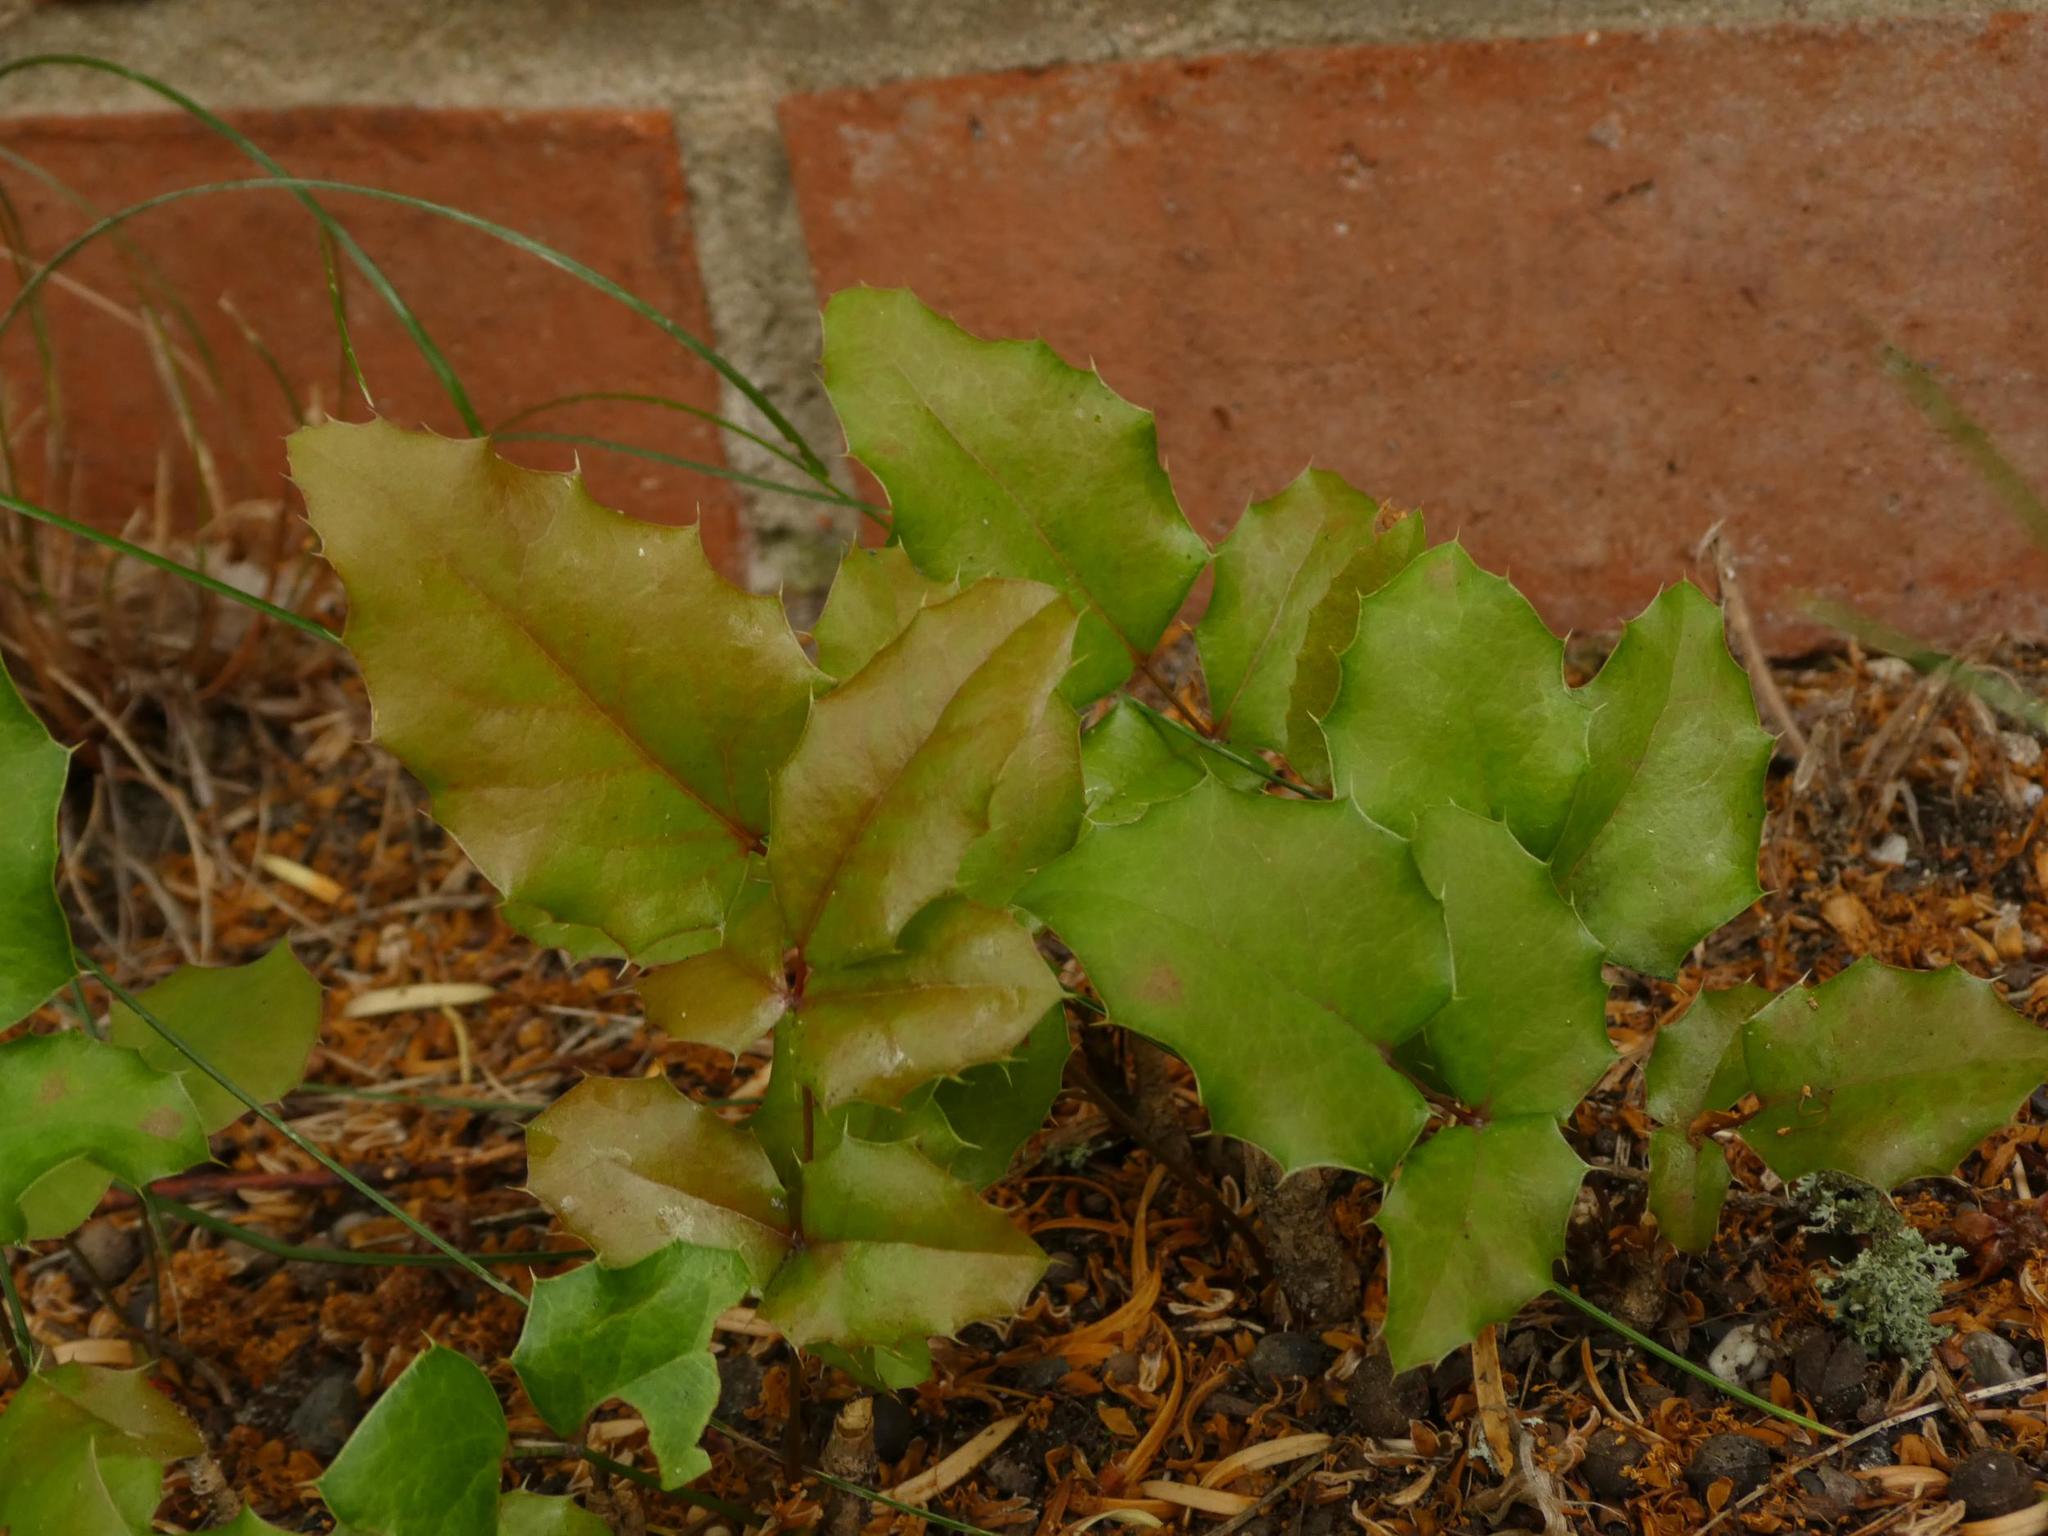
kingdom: Plantae
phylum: Tracheophyta
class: Magnoliopsida
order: Ranunculales
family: Berberidaceae
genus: Mahonia
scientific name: Mahonia aquifolium
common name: Oregon-grape
